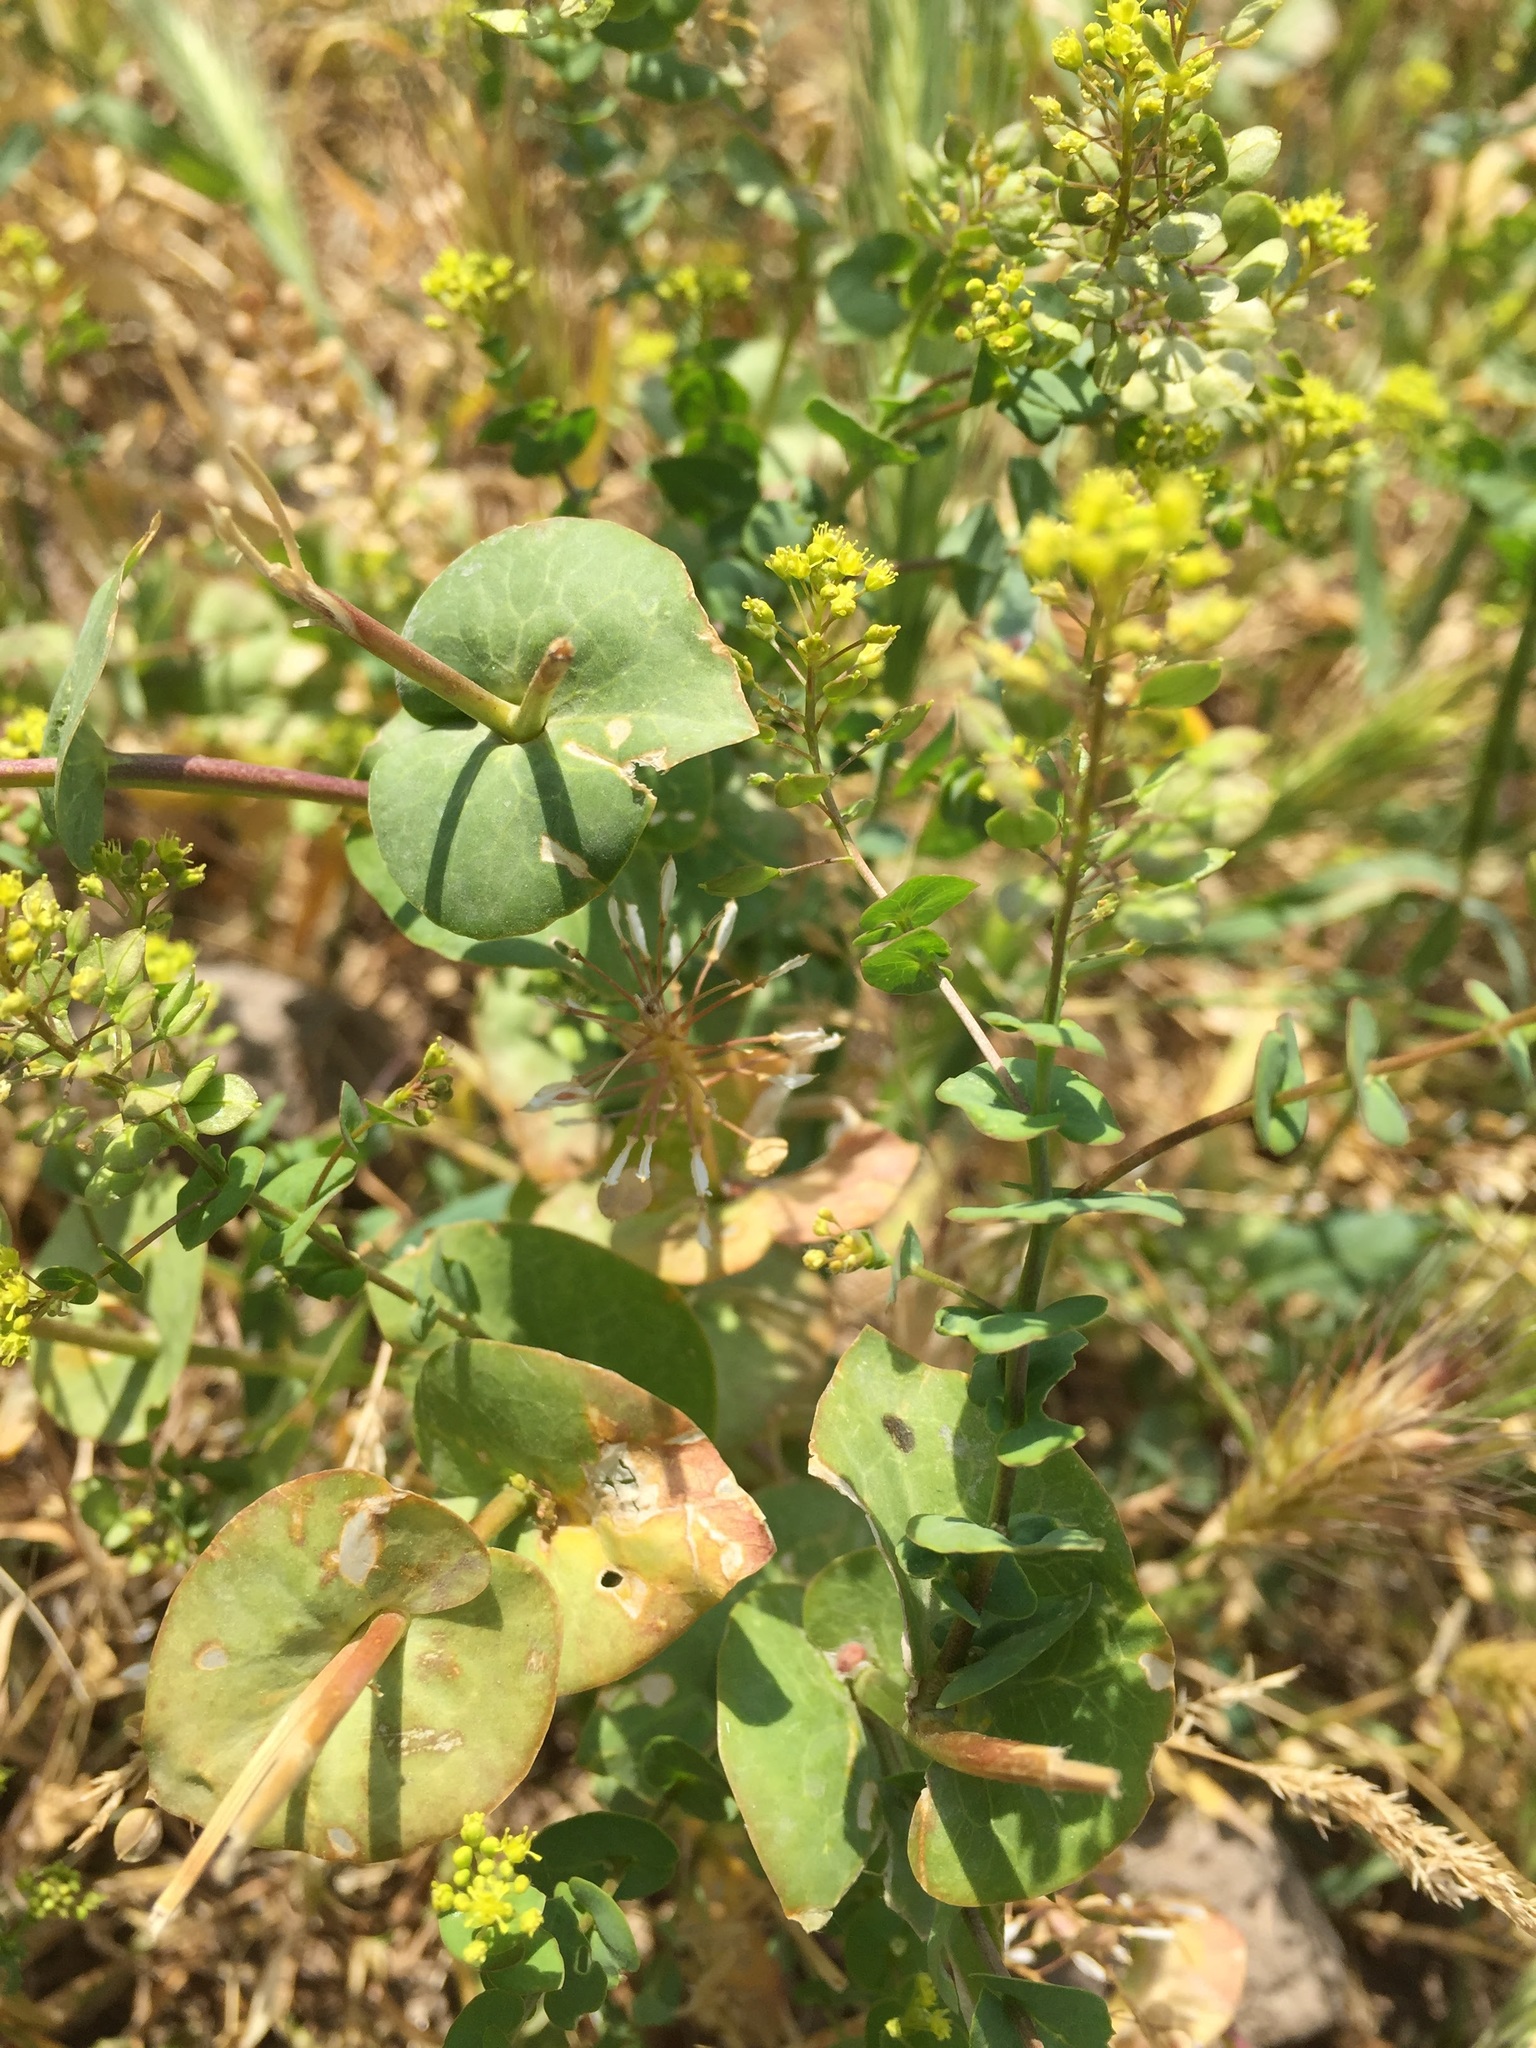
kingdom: Plantae
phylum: Tracheophyta
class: Magnoliopsida
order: Brassicales
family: Brassicaceae
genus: Lepidium
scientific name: Lepidium perfoliatum
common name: Perfoliate pepperwort
